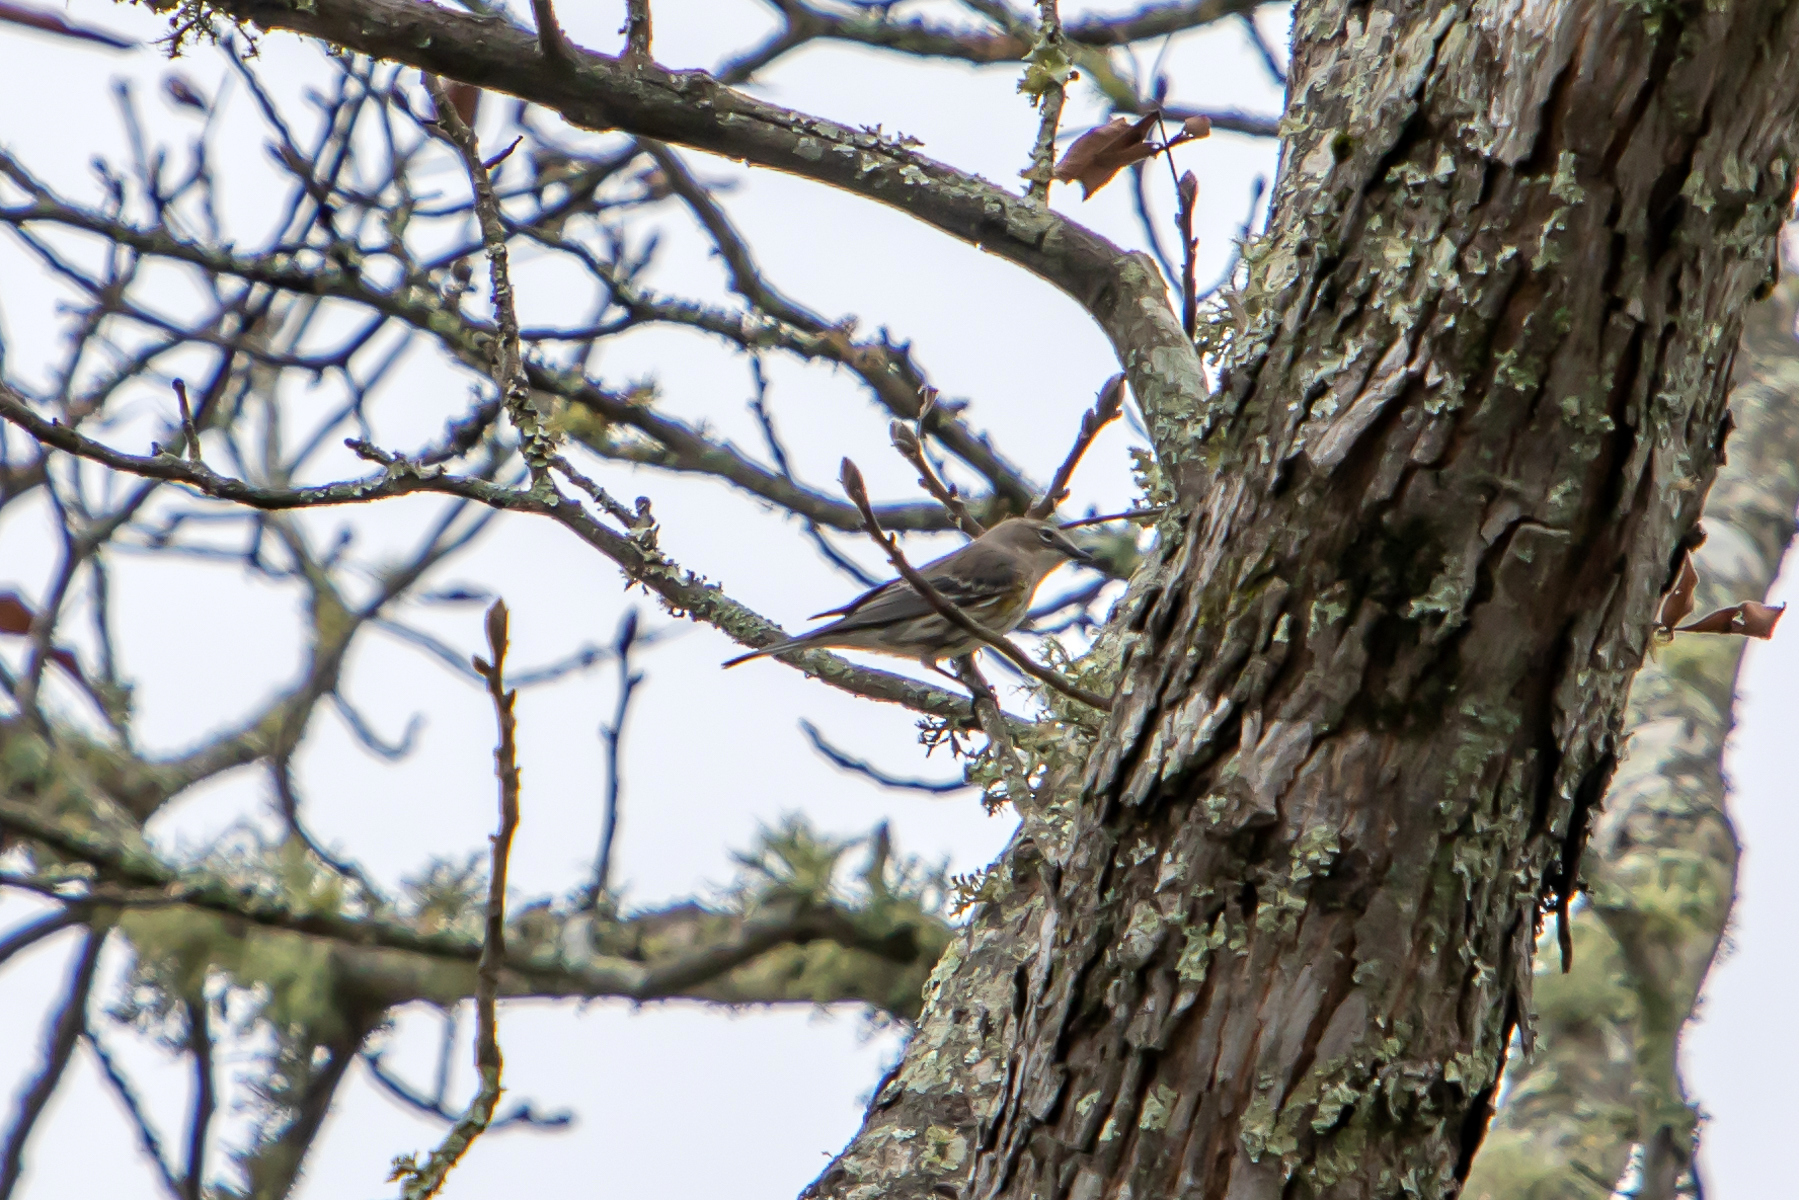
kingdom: Animalia
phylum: Chordata
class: Aves
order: Passeriformes
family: Parulidae
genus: Setophaga
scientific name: Setophaga coronata
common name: Myrtle warbler
